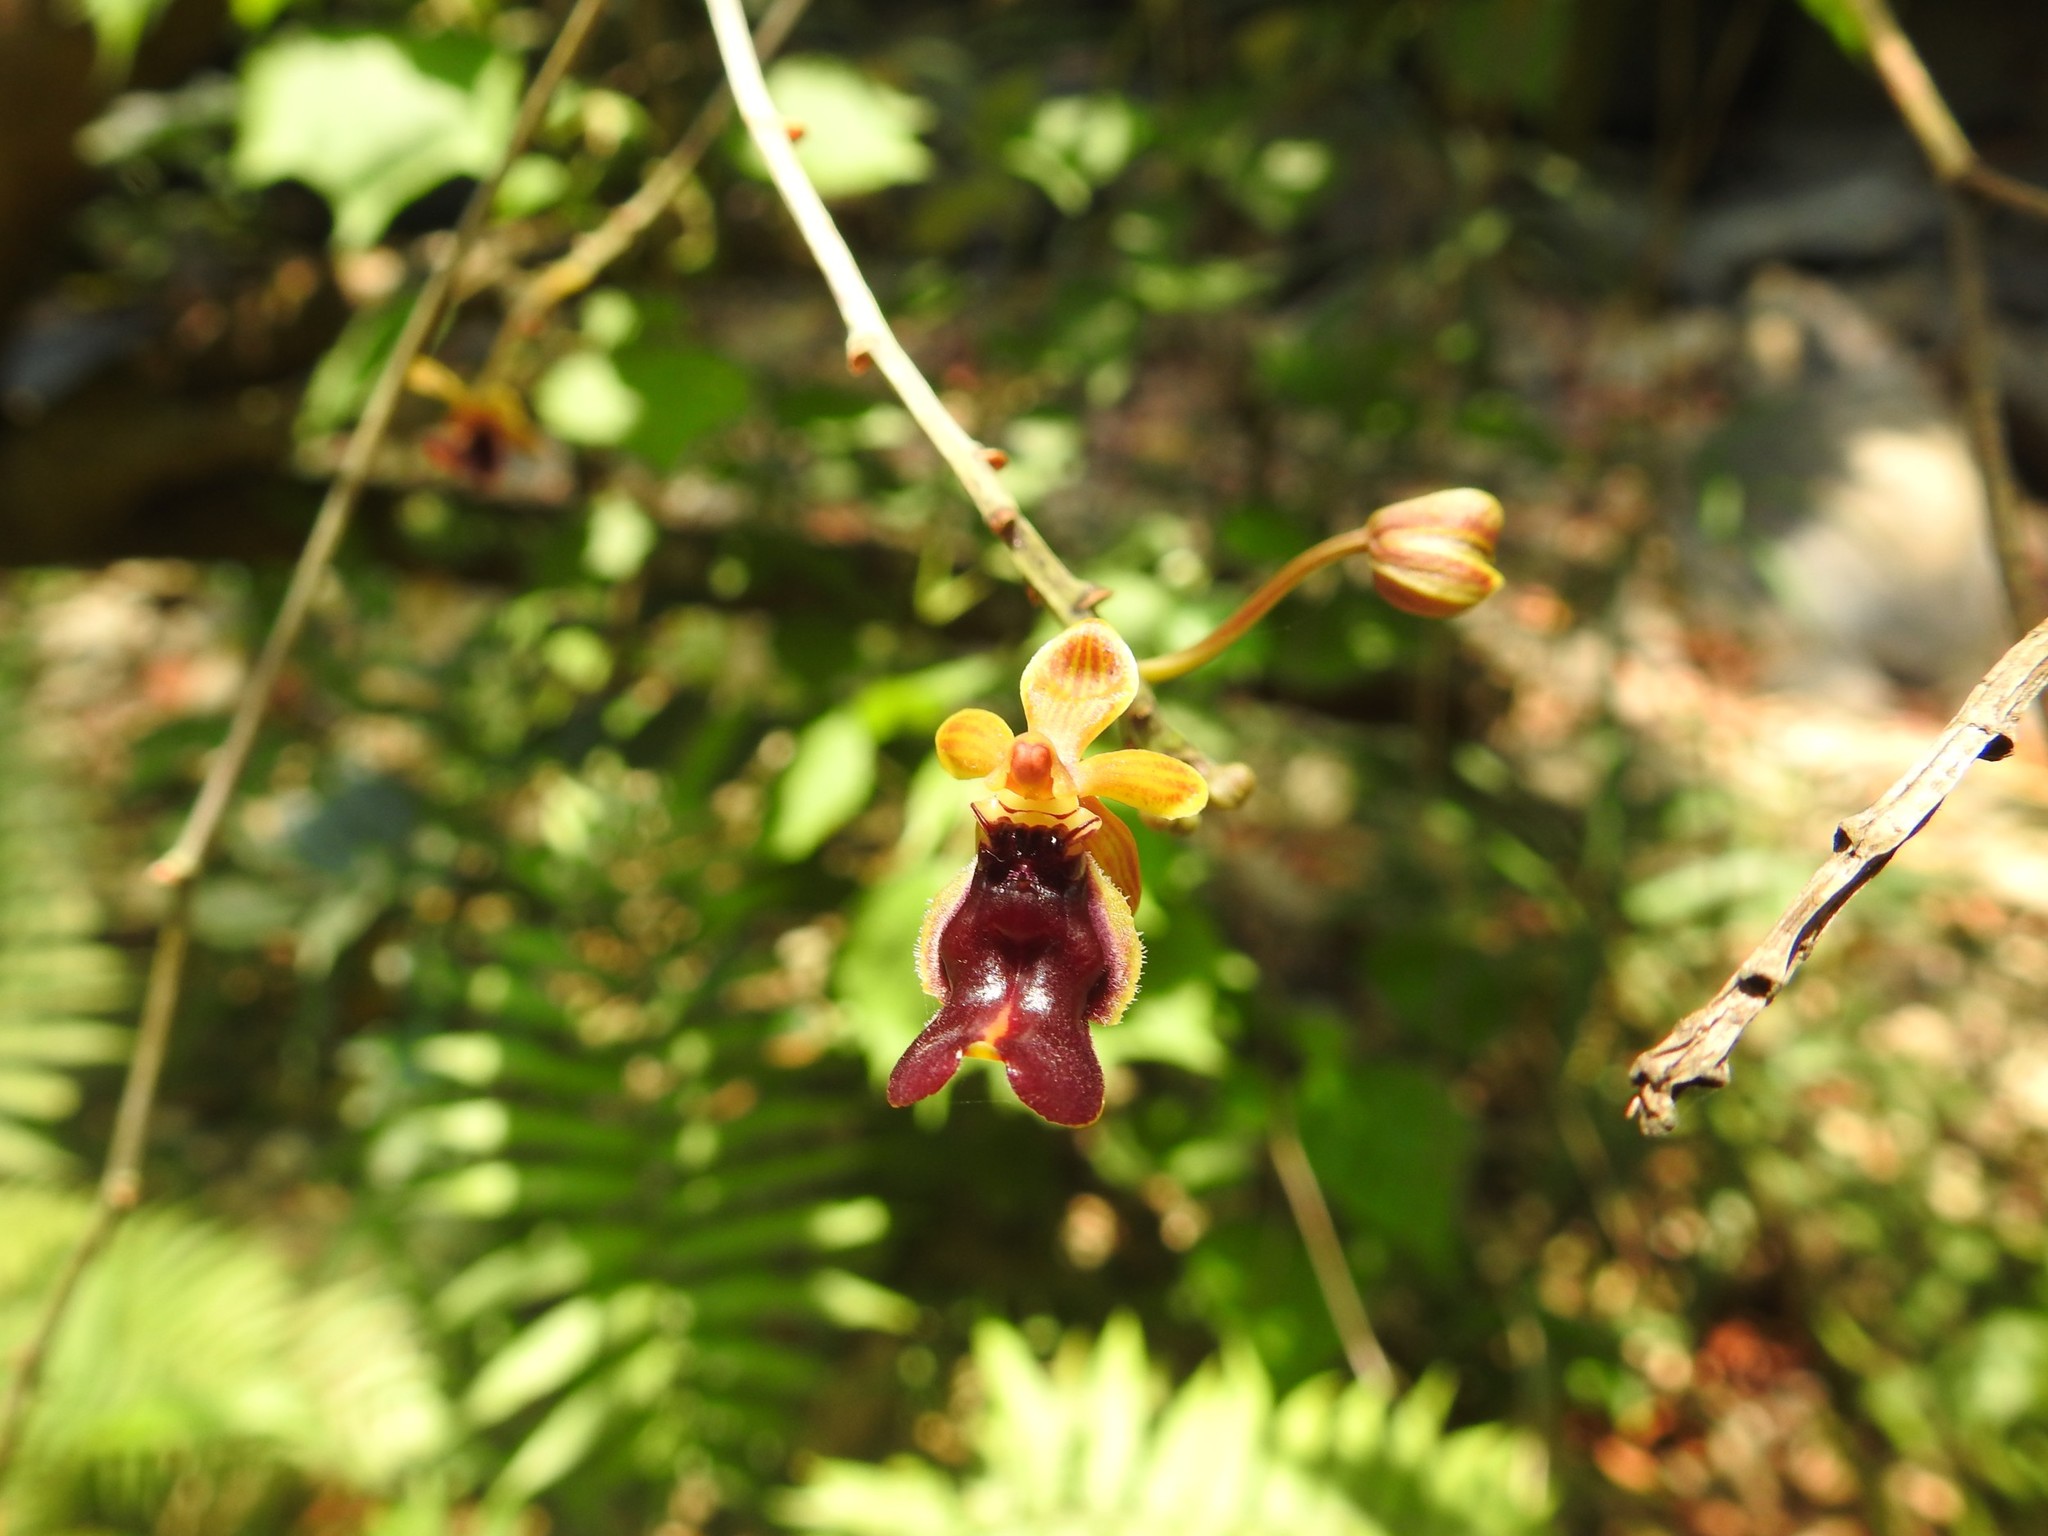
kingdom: Plantae
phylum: Tracheophyta
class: Liliopsida
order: Asparagales
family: Orchidaceae
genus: Cottonia
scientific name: Cottonia peduncularis
